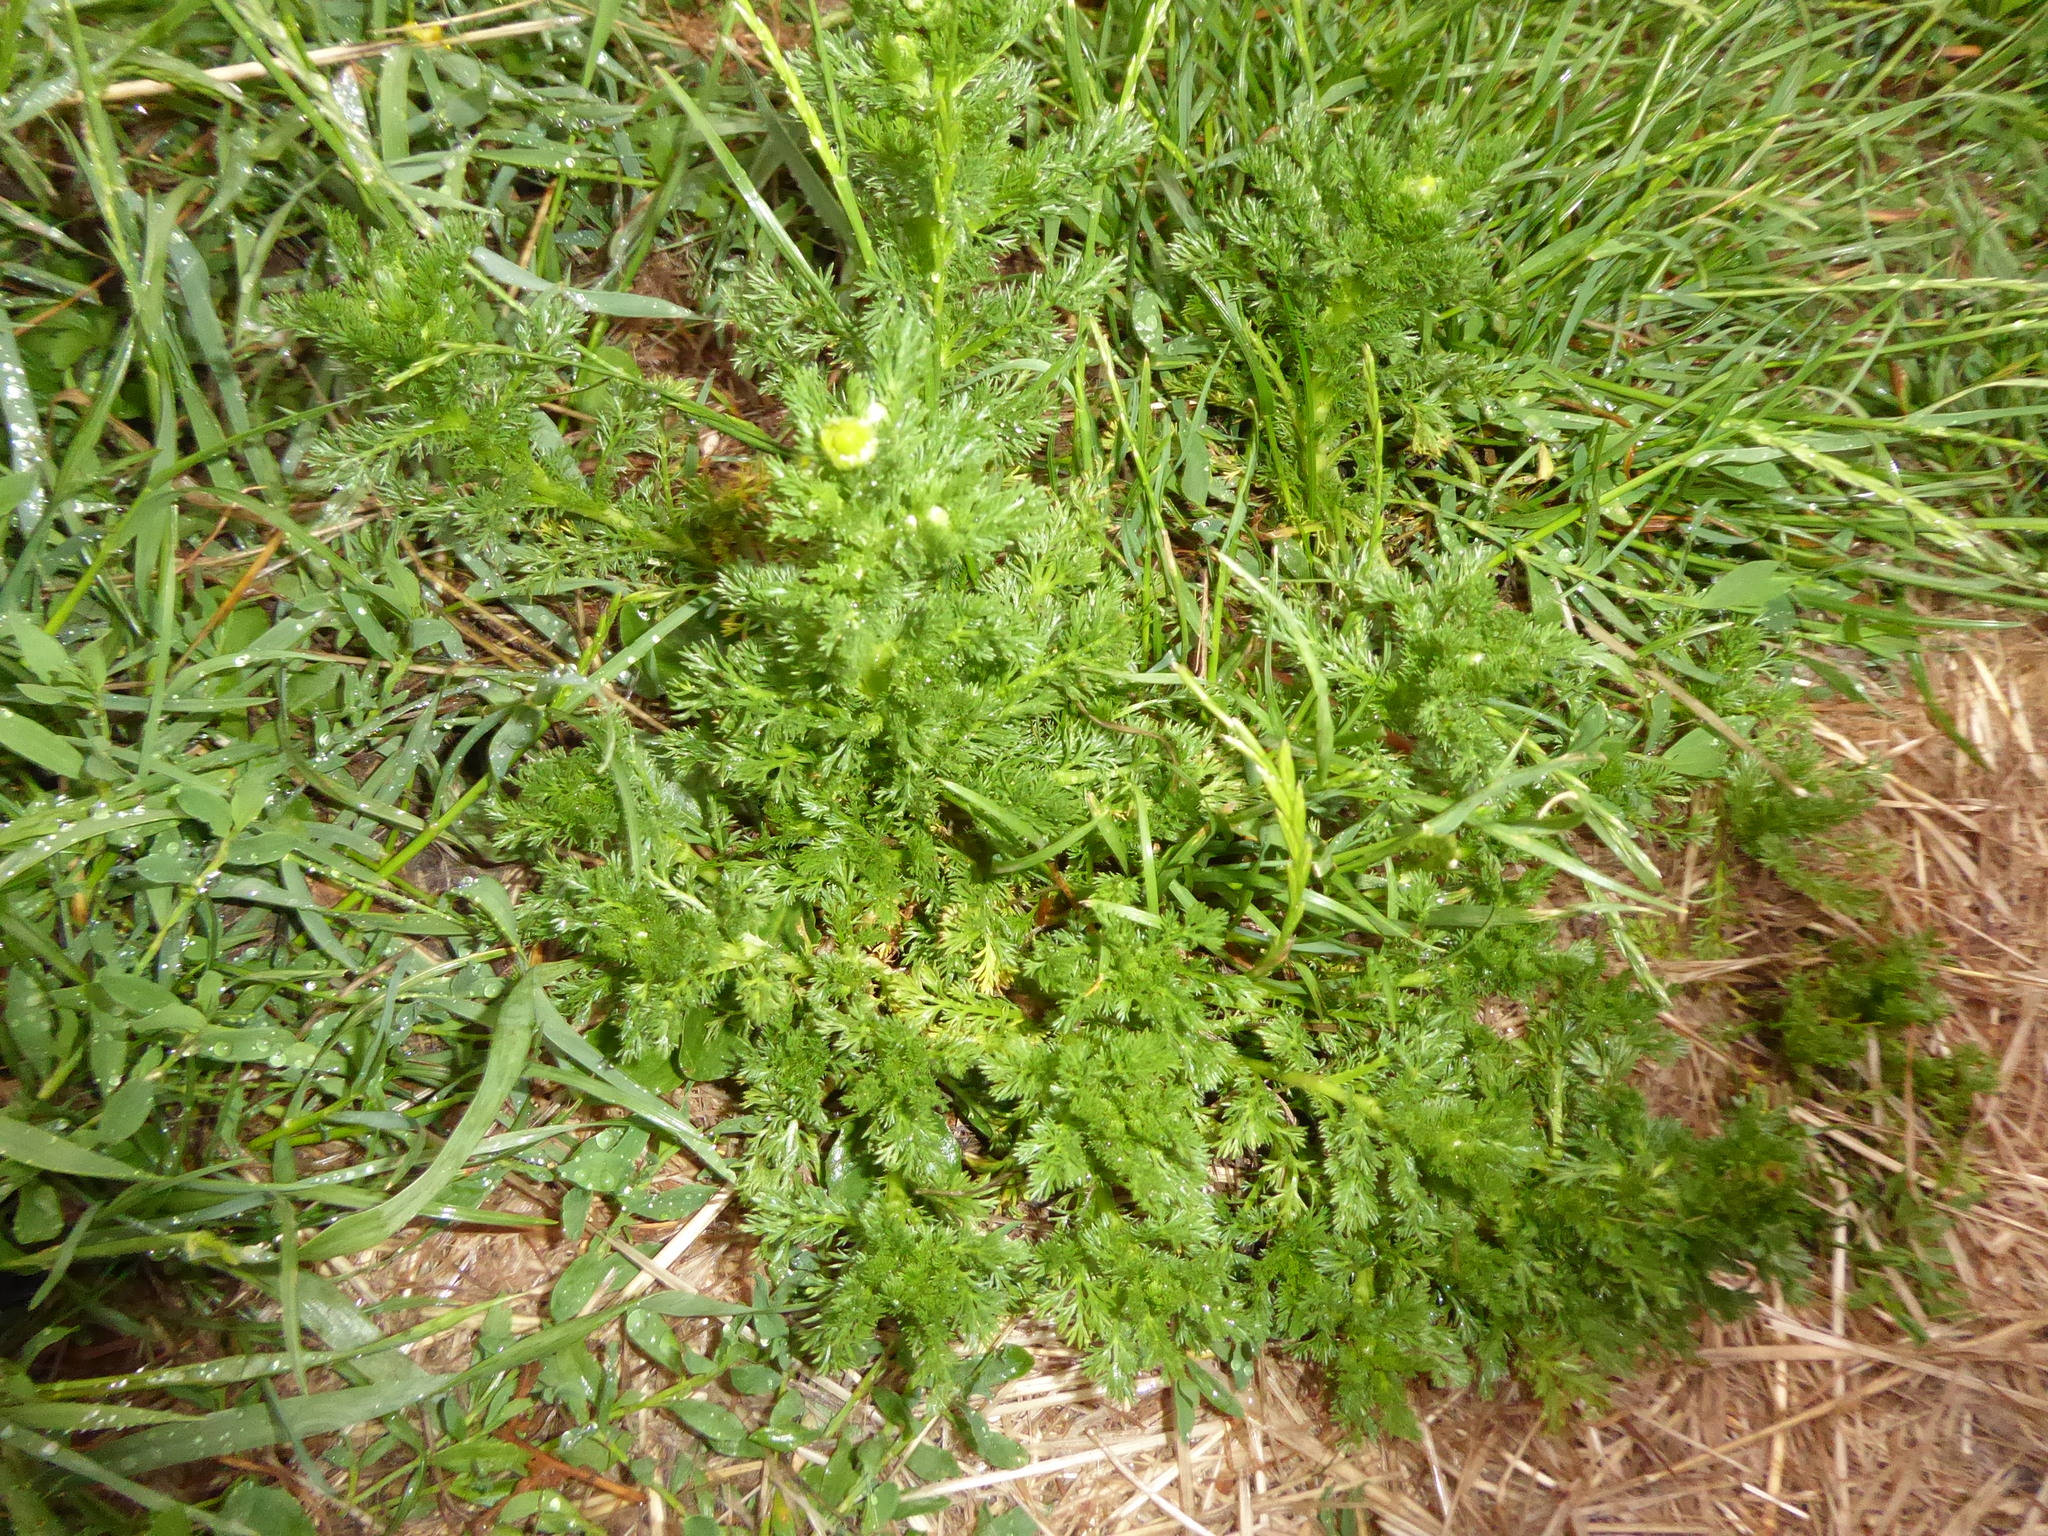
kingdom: Plantae
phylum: Tracheophyta
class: Magnoliopsida
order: Asterales
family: Asteraceae
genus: Matricaria
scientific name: Matricaria discoidea
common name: Disc mayweed
